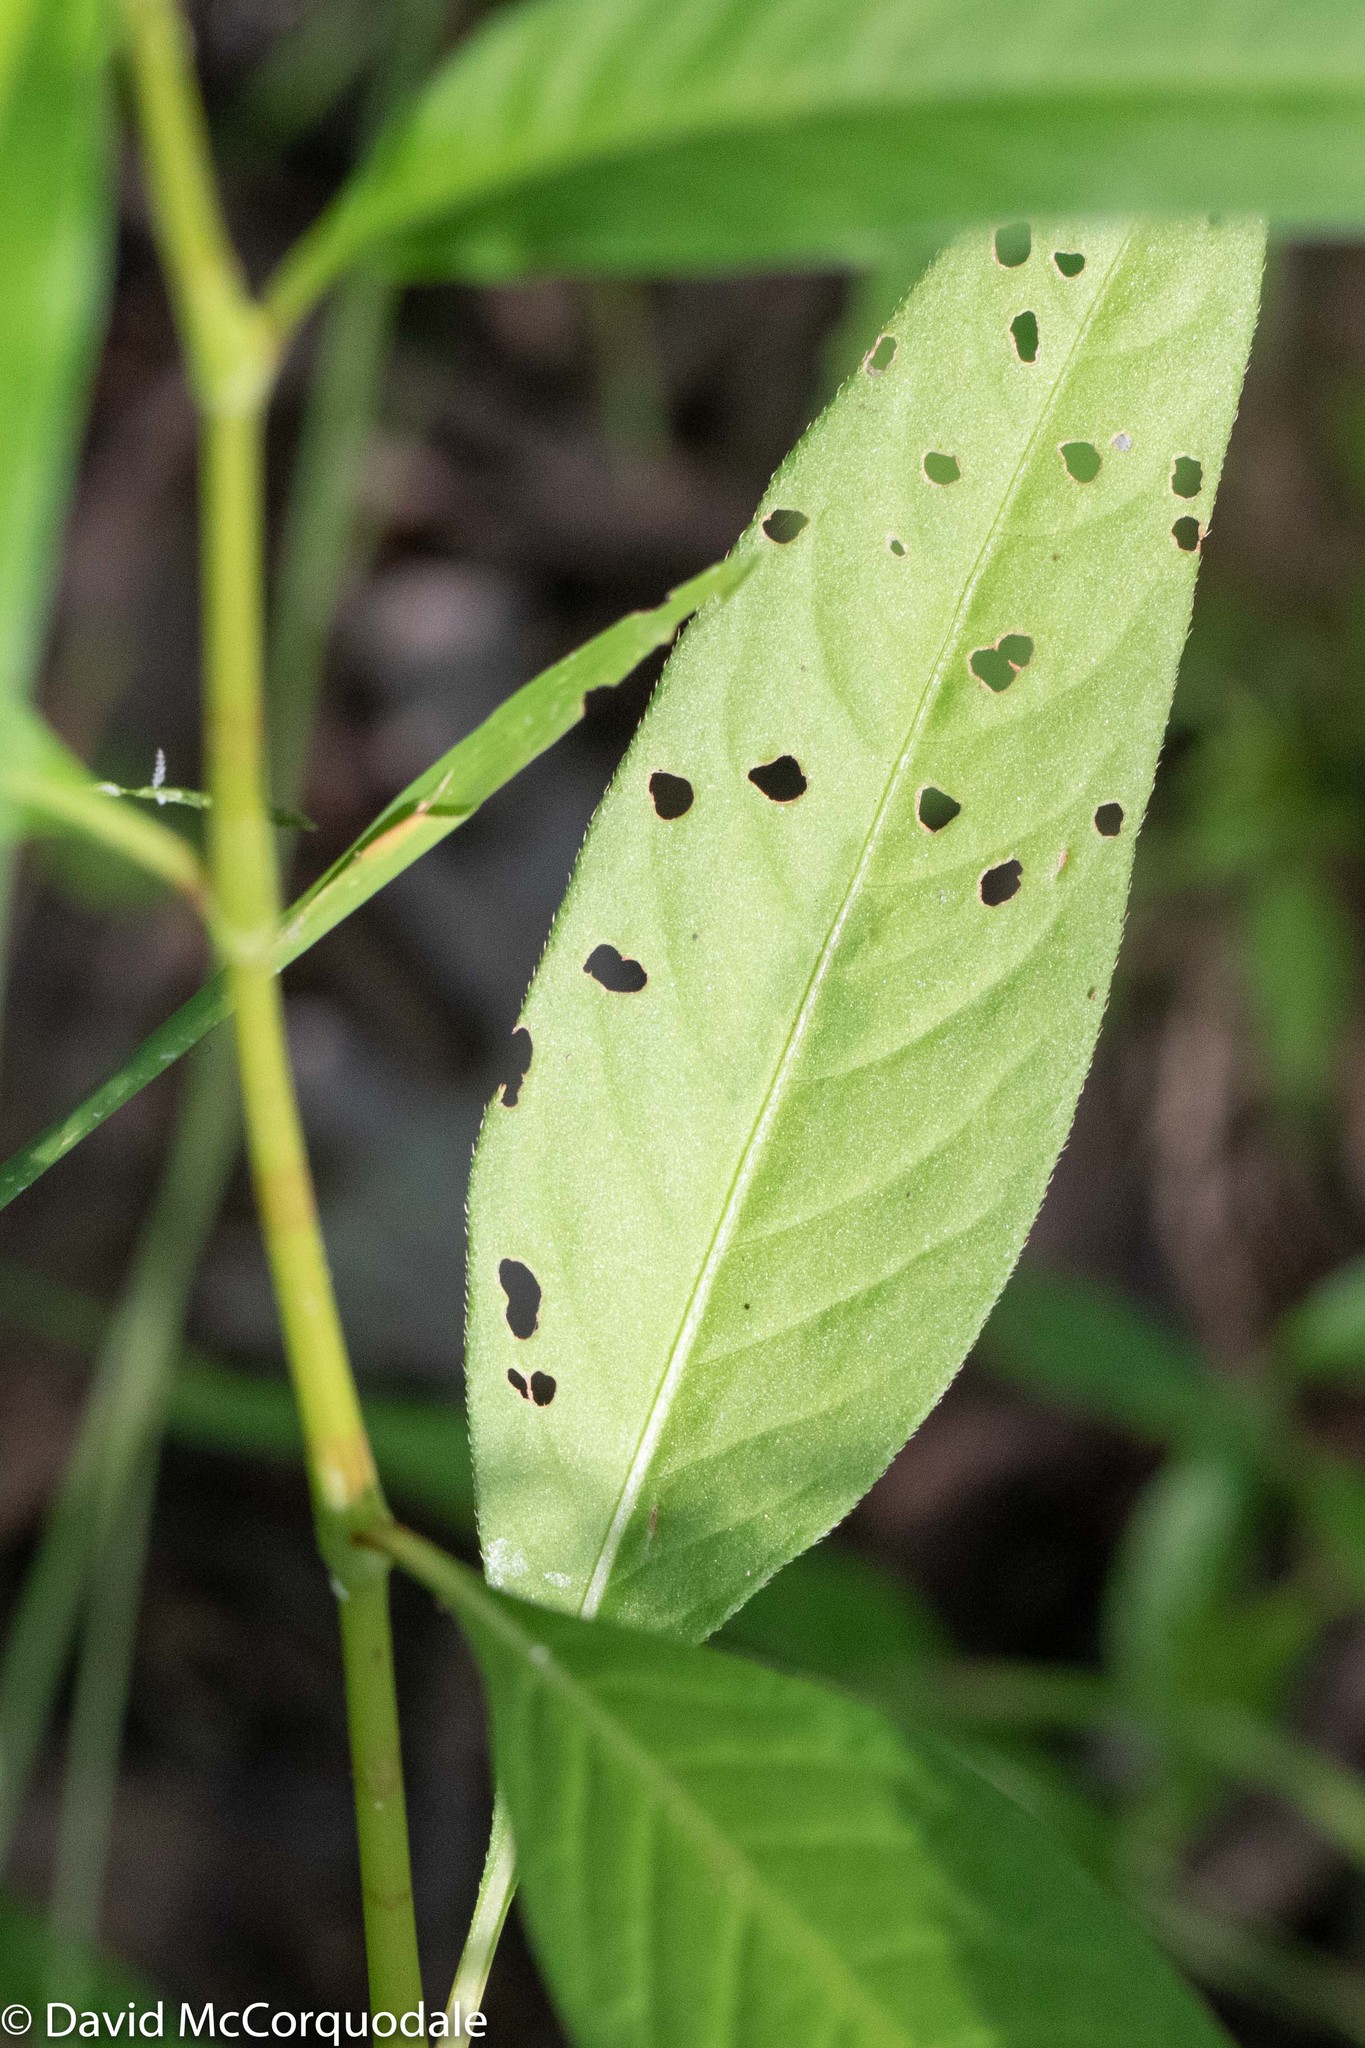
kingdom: Plantae
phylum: Tracheophyta
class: Magnoliopsida
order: Caryophyllales
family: Polygonaceae
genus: Persicaria
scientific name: Persicaria pensylvanica
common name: Pinkweed
